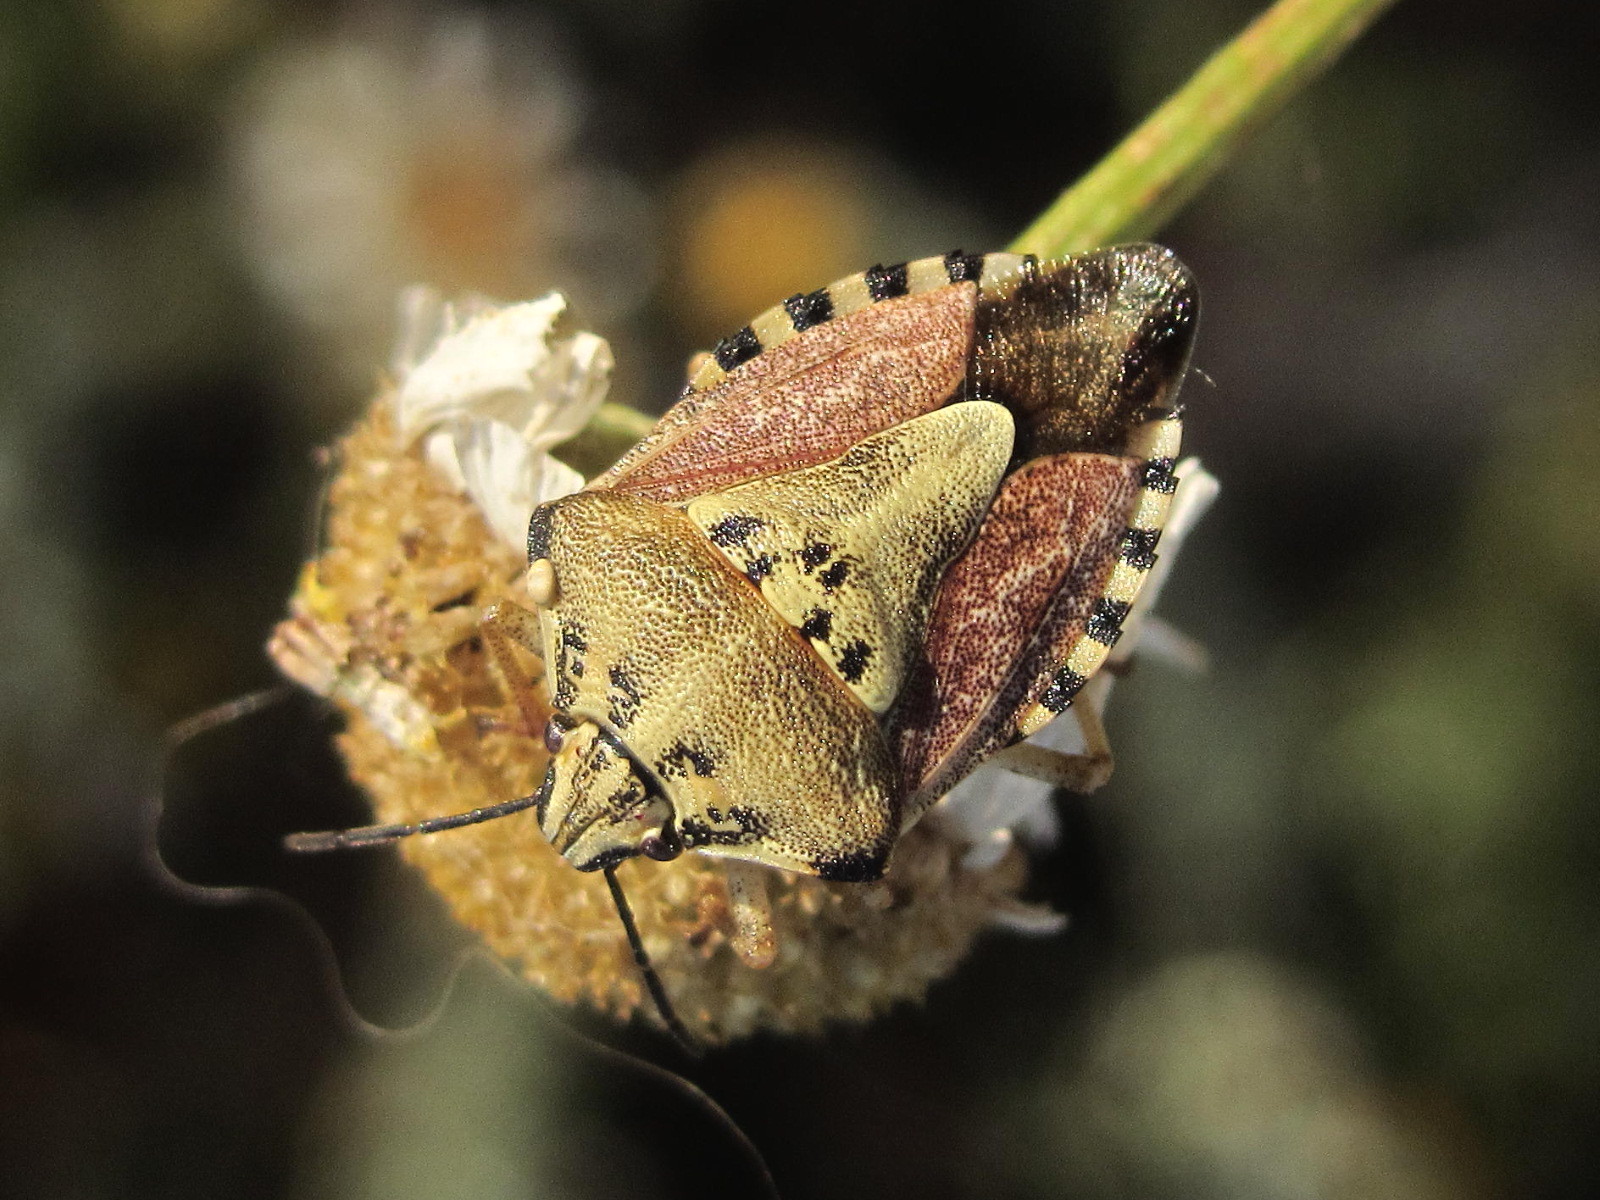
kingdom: Animalia
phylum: Arthropoda
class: Insecta
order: Hemiptera
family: Pentatomidae
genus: Carpocoris
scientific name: Carpocoris purpureipennis
